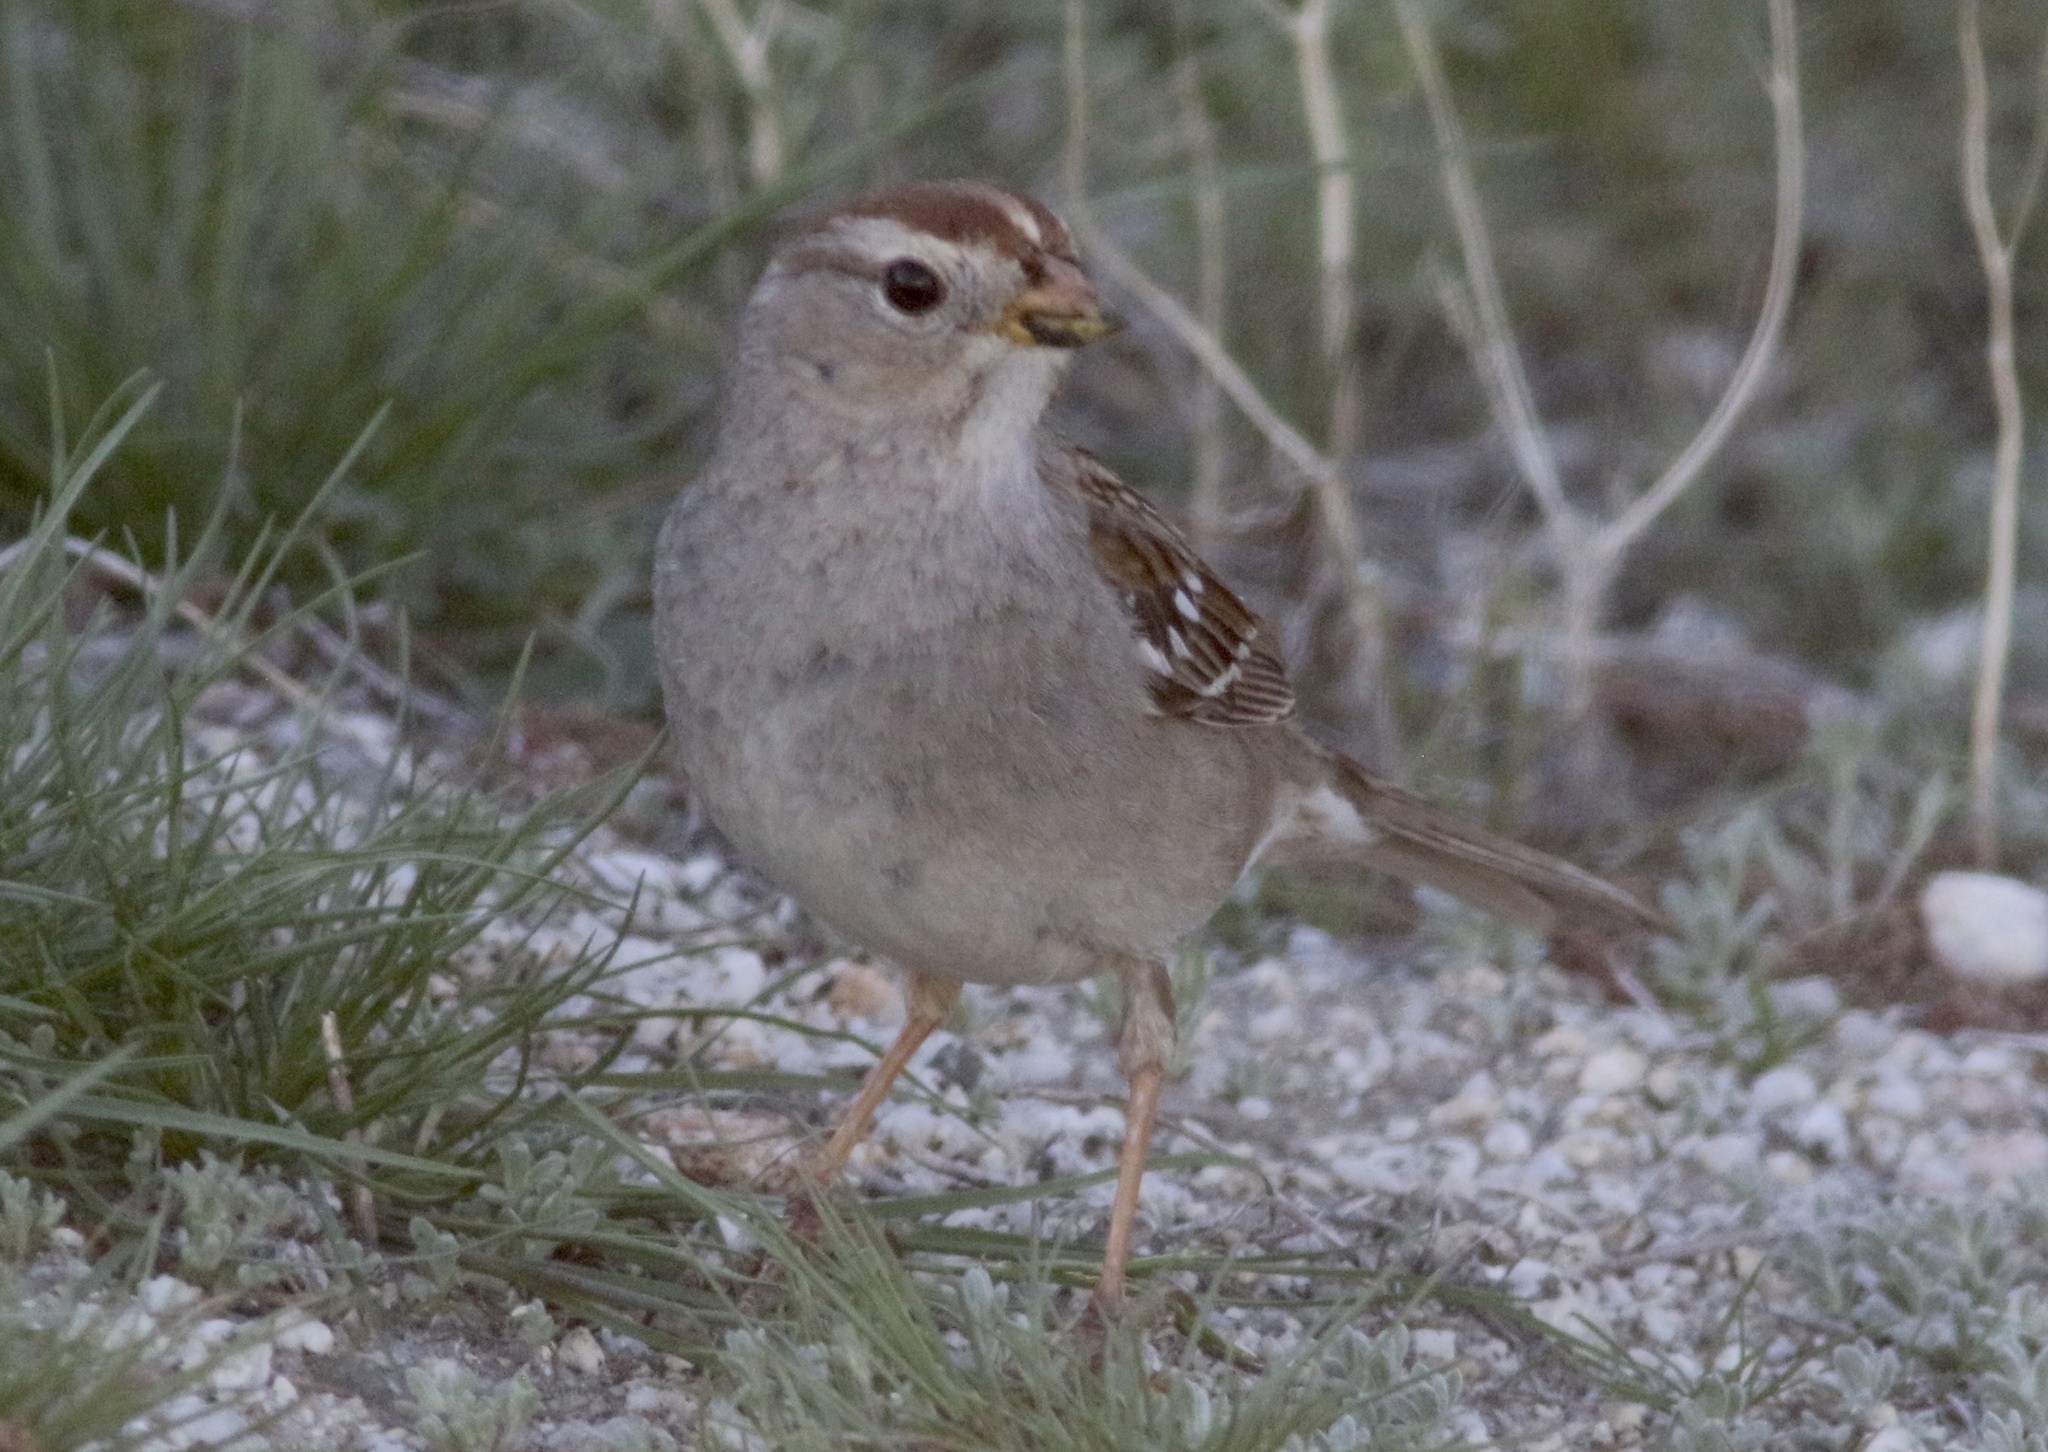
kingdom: Animalia
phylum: Chordata
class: Aves
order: Passeriformes
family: Passerellidae
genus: Zonotrichia
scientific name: Zonotrichia leucophrys
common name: White-crowned sparrow
